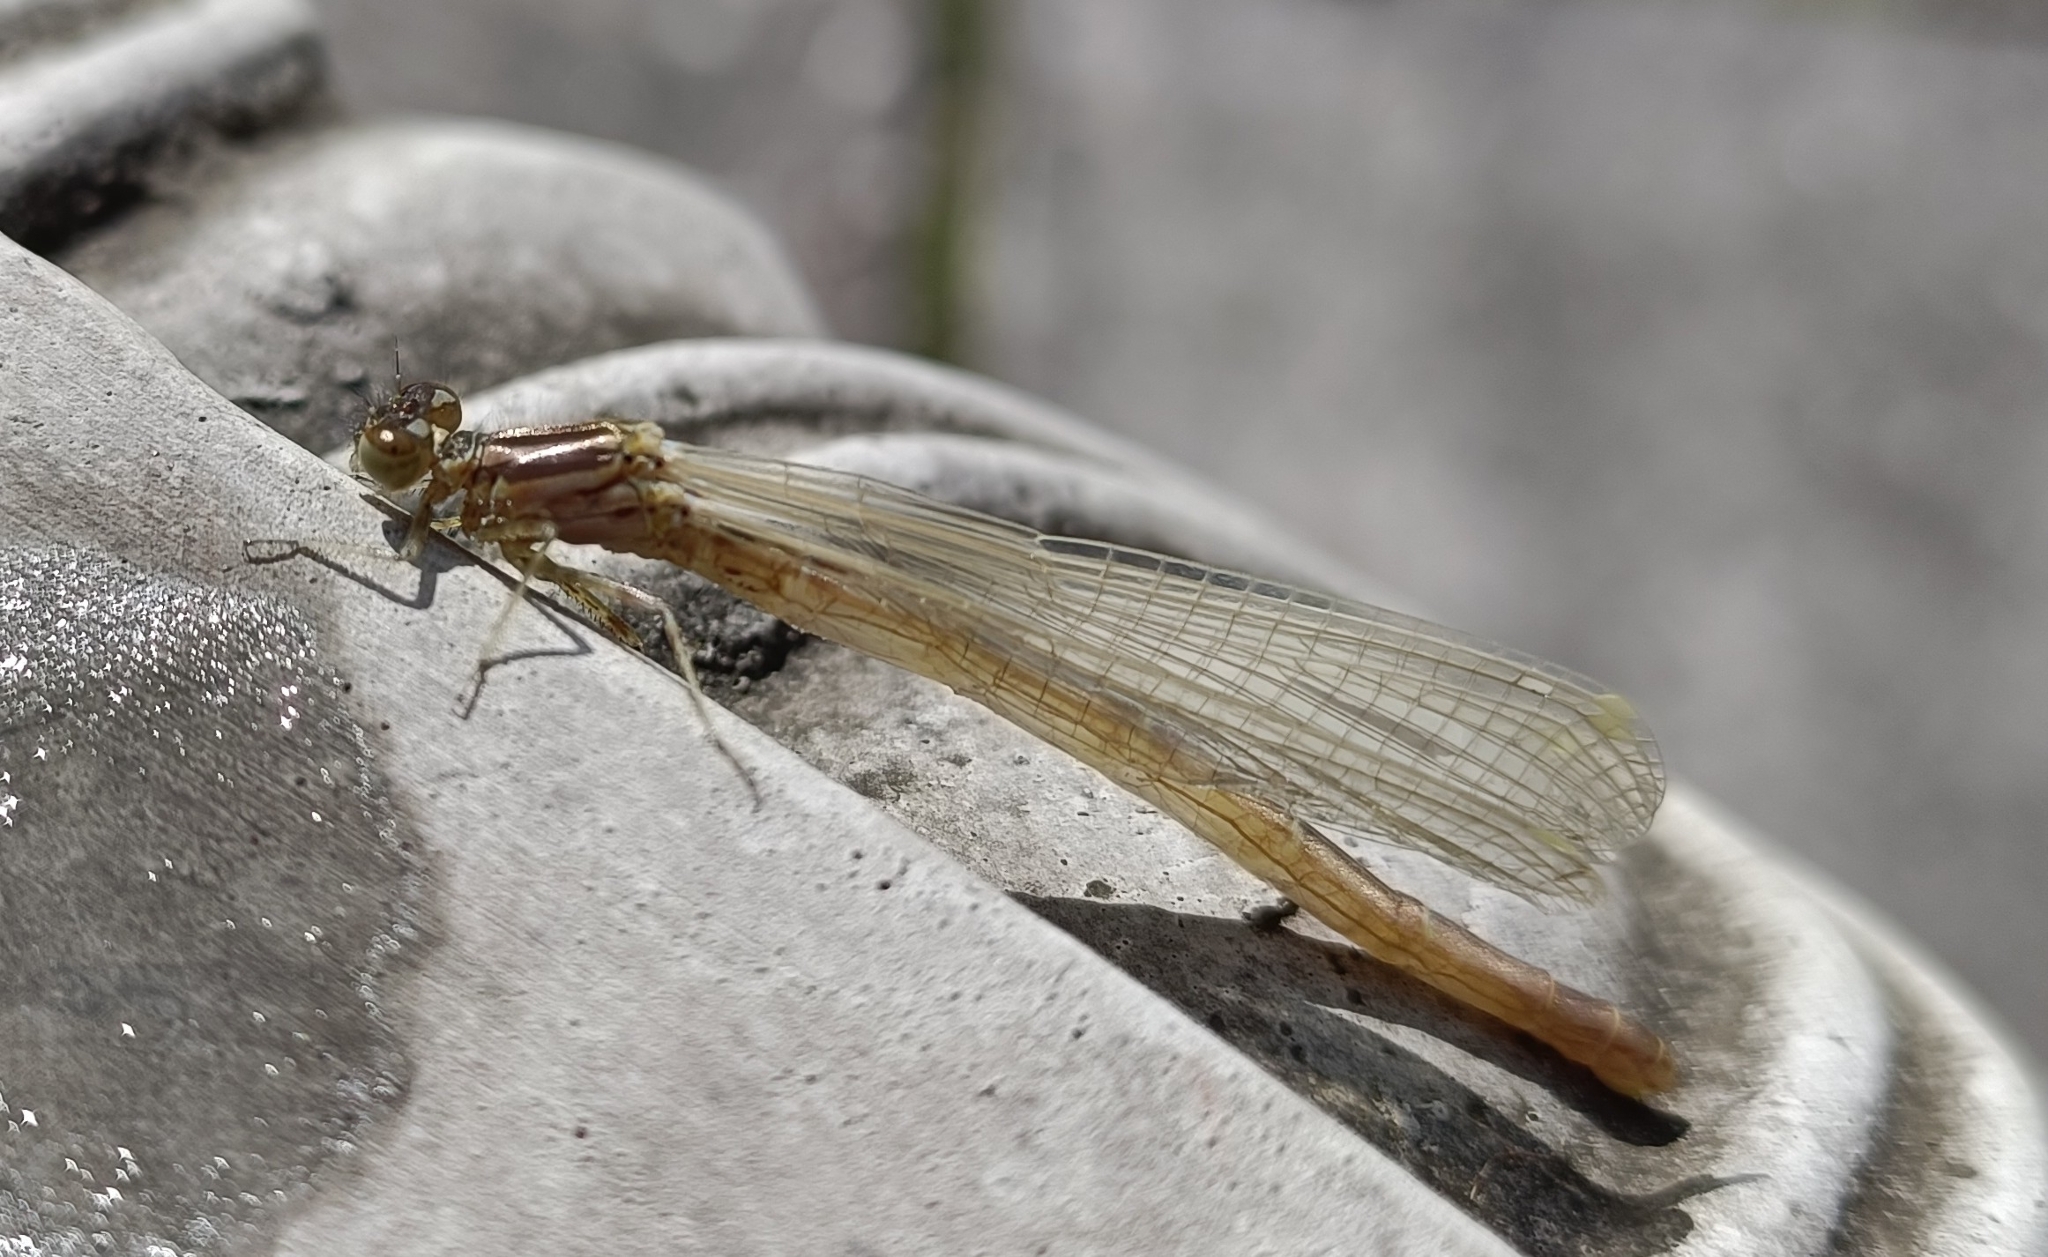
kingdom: Animalia
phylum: Arthropoda
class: Insecta
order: Odonata
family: Coenagrionidae
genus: Coenagrion
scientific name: Coenagrion puella
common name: Azure damselfly
